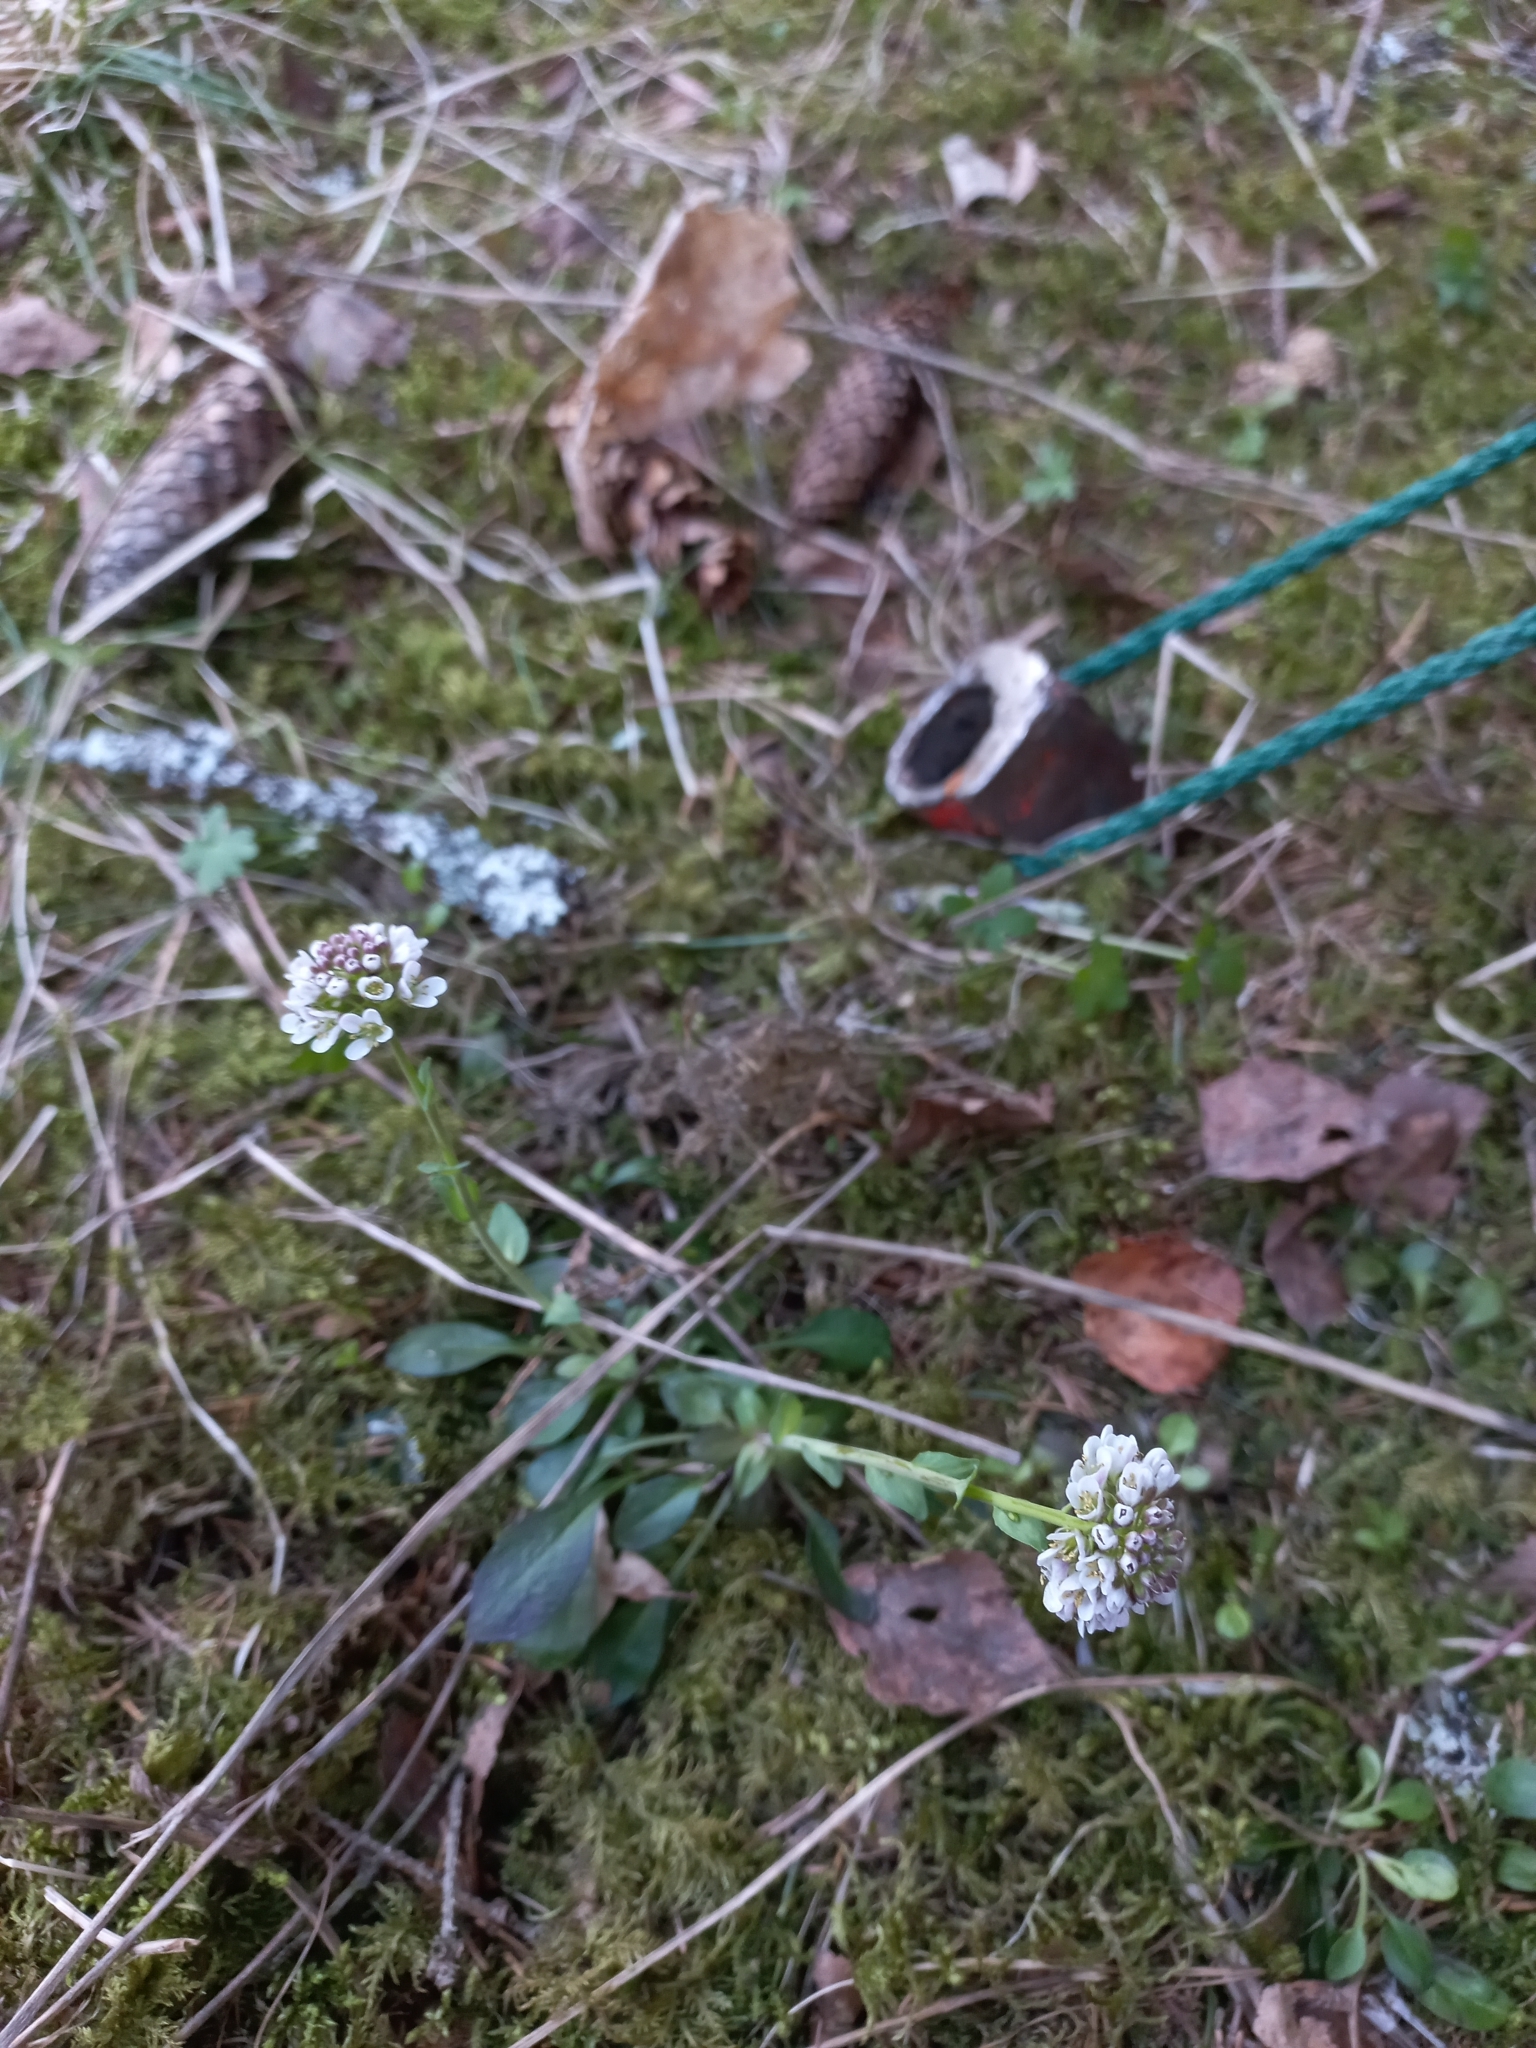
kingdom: Plantae
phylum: Tracheophyta
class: Magnoliopsida
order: Brassicales
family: Brassicaceae
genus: Noccaea
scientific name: Noccaea caerulescens
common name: Alpine pennycress
